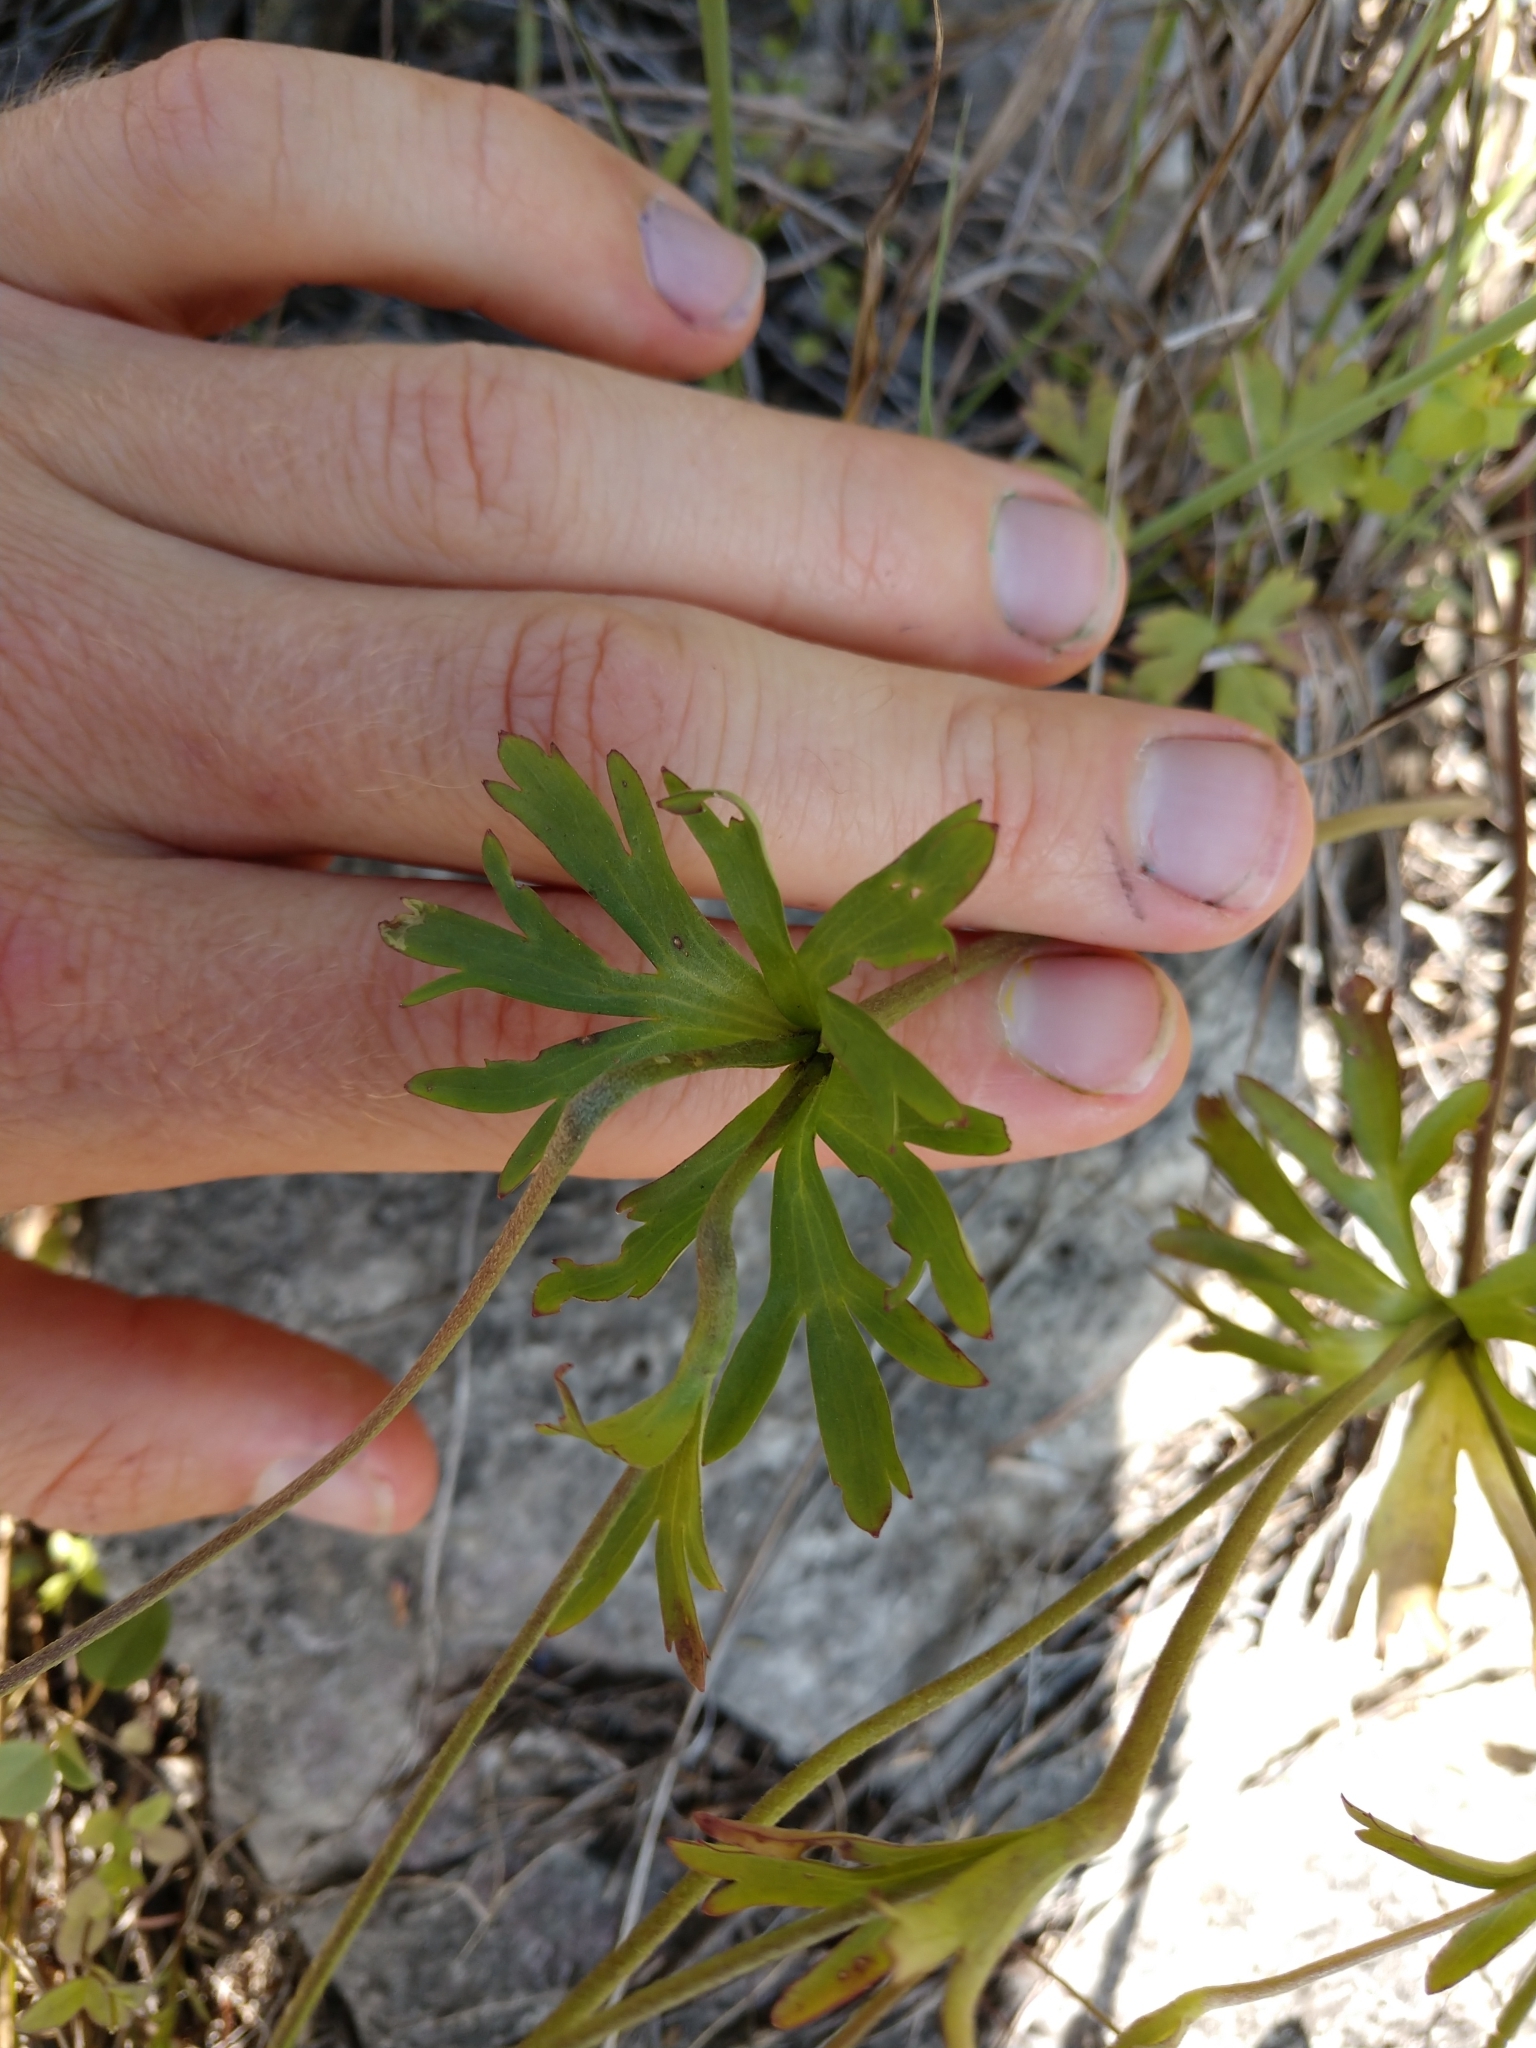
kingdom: Plantae
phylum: Tracheophyta
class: Magnoliopsida
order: Ranunculales
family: Ranunculaceae
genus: Anemone
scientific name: Anemone edwardsiana
